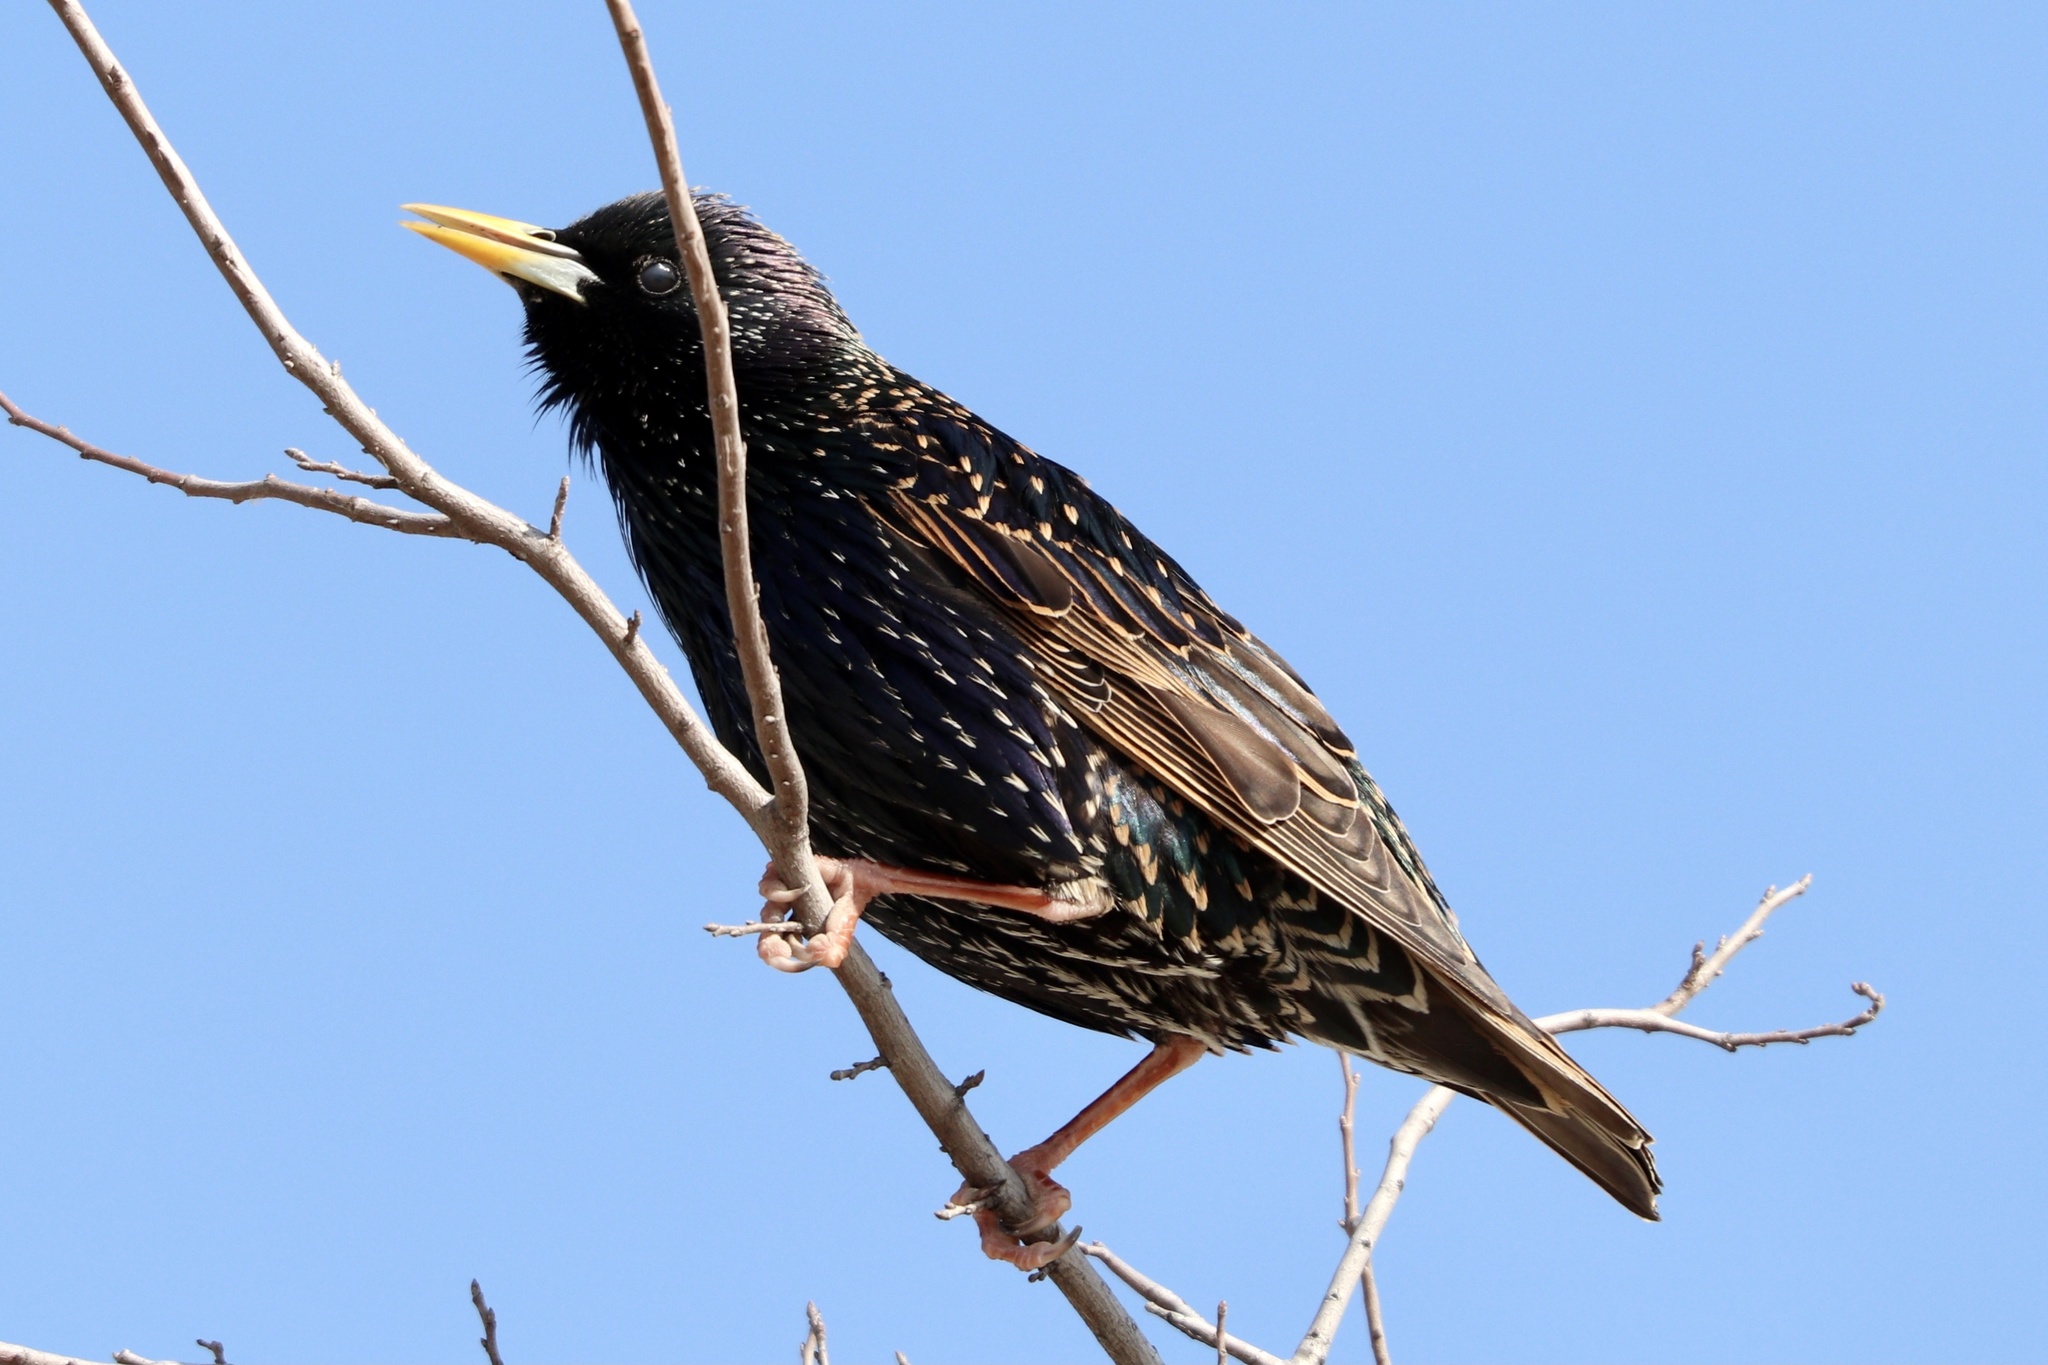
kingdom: Animalia
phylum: Chordata
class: Aves
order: Passeriformes
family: Sturnidae
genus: Sturnus
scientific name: Sturnus vulgaris
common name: Common starling
